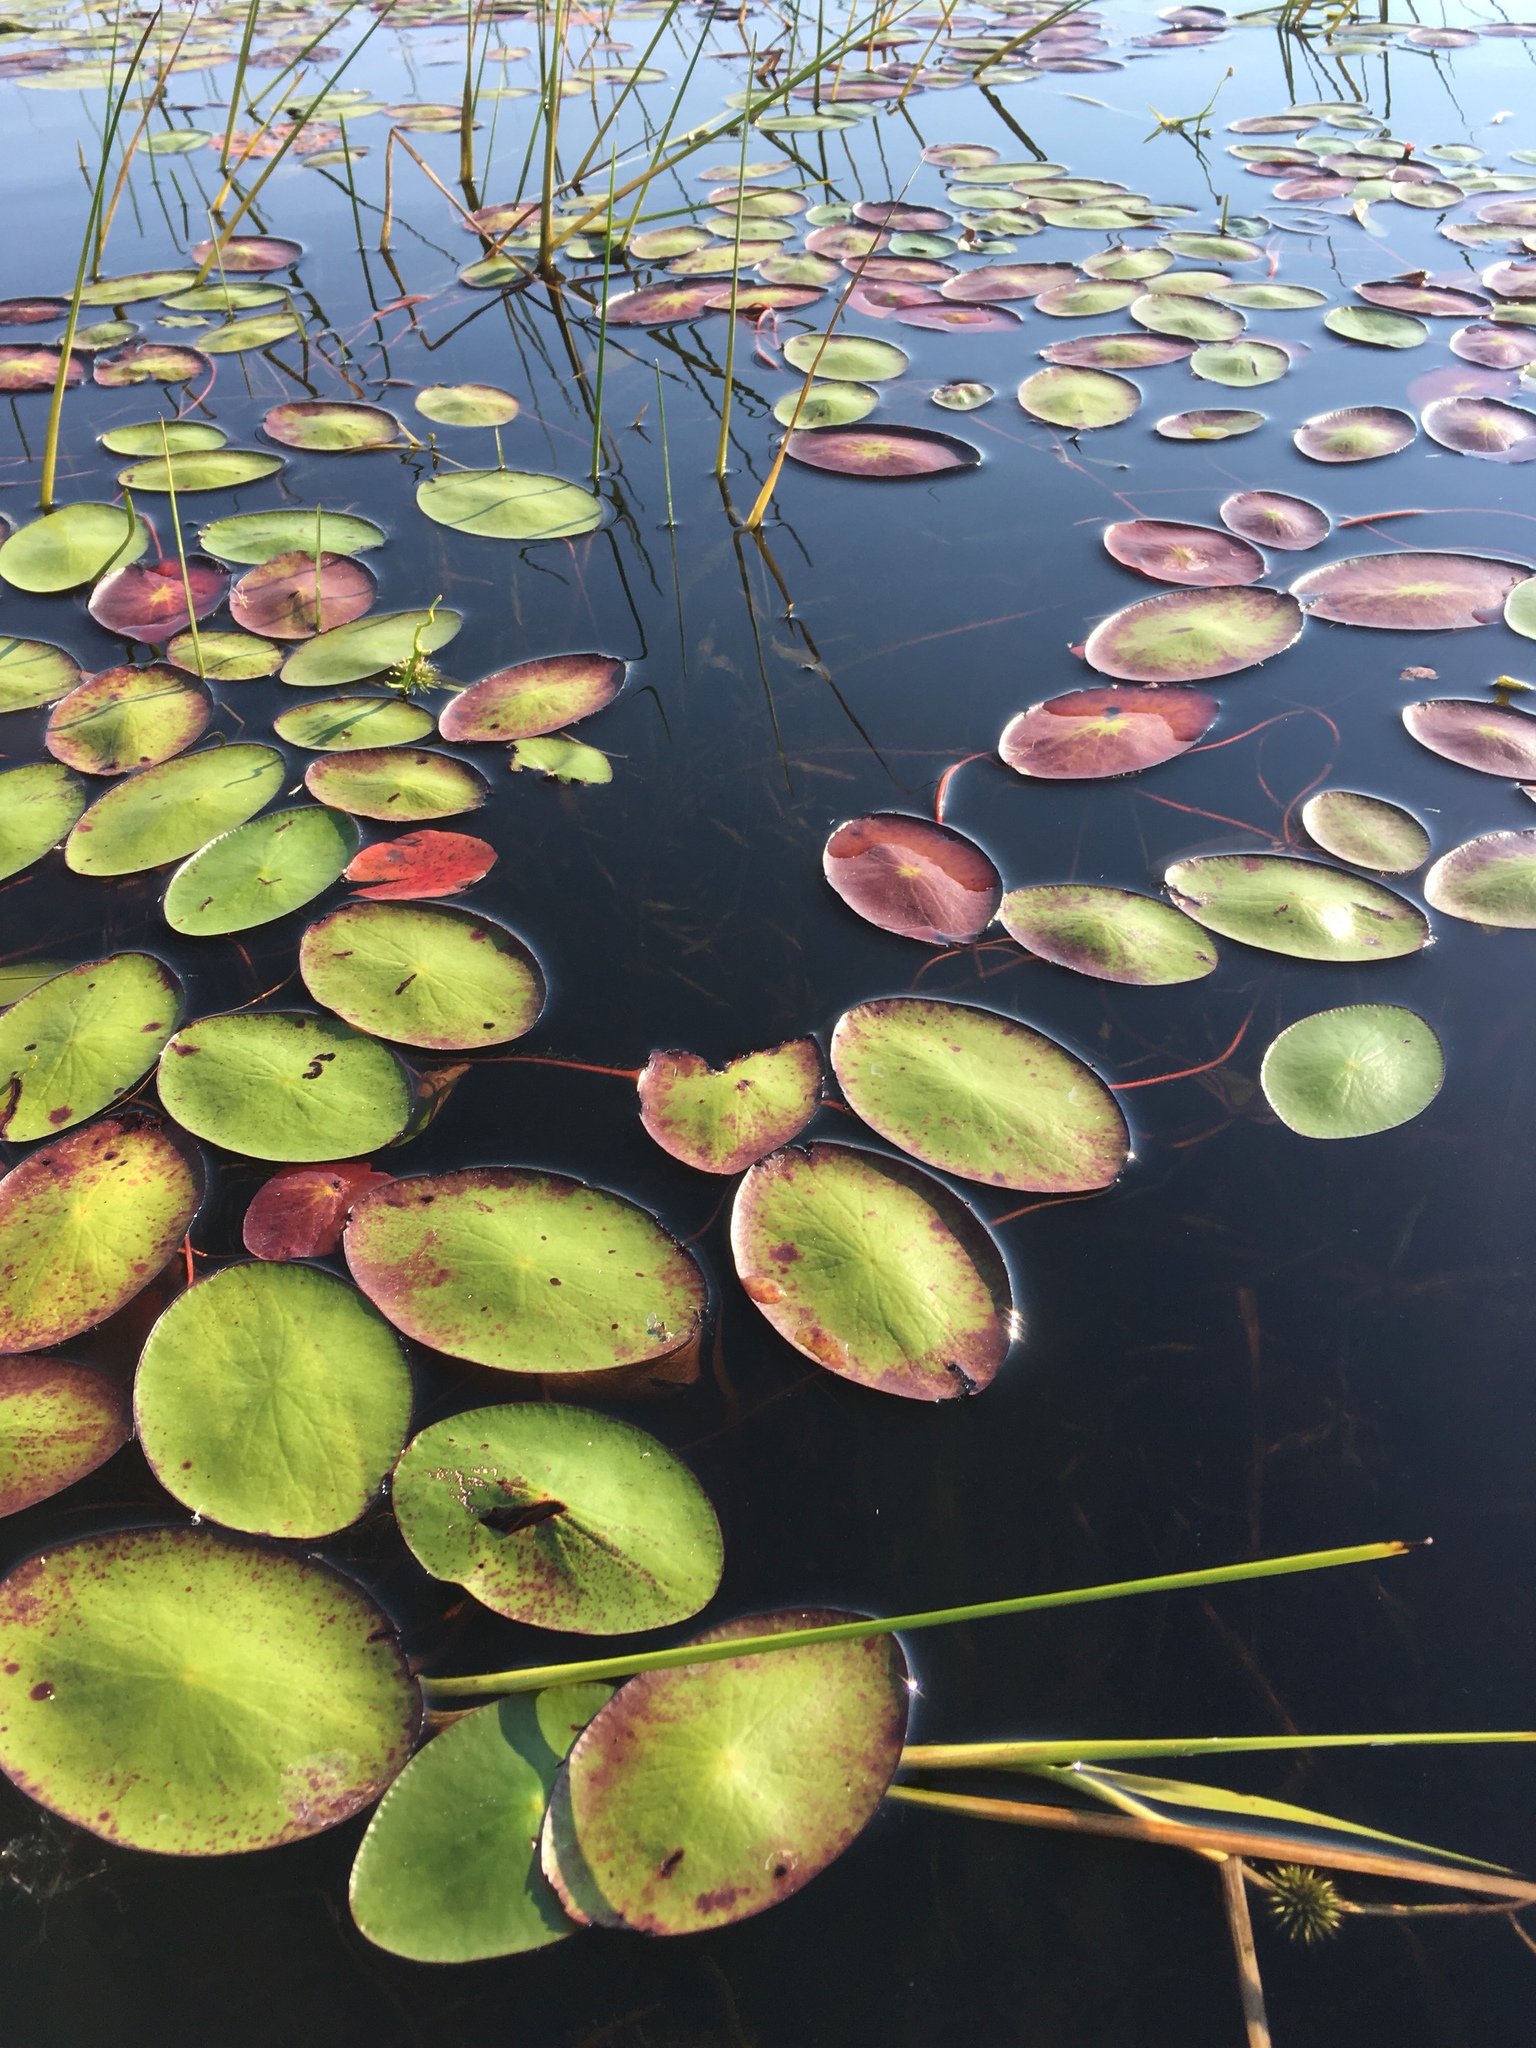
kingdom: Plantae
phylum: Tracheophyta
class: Magnoliopsida
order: Nymphaeales
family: Cabombaceae
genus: Brasenia
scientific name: Brasenia schreberi
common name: Water-shield
